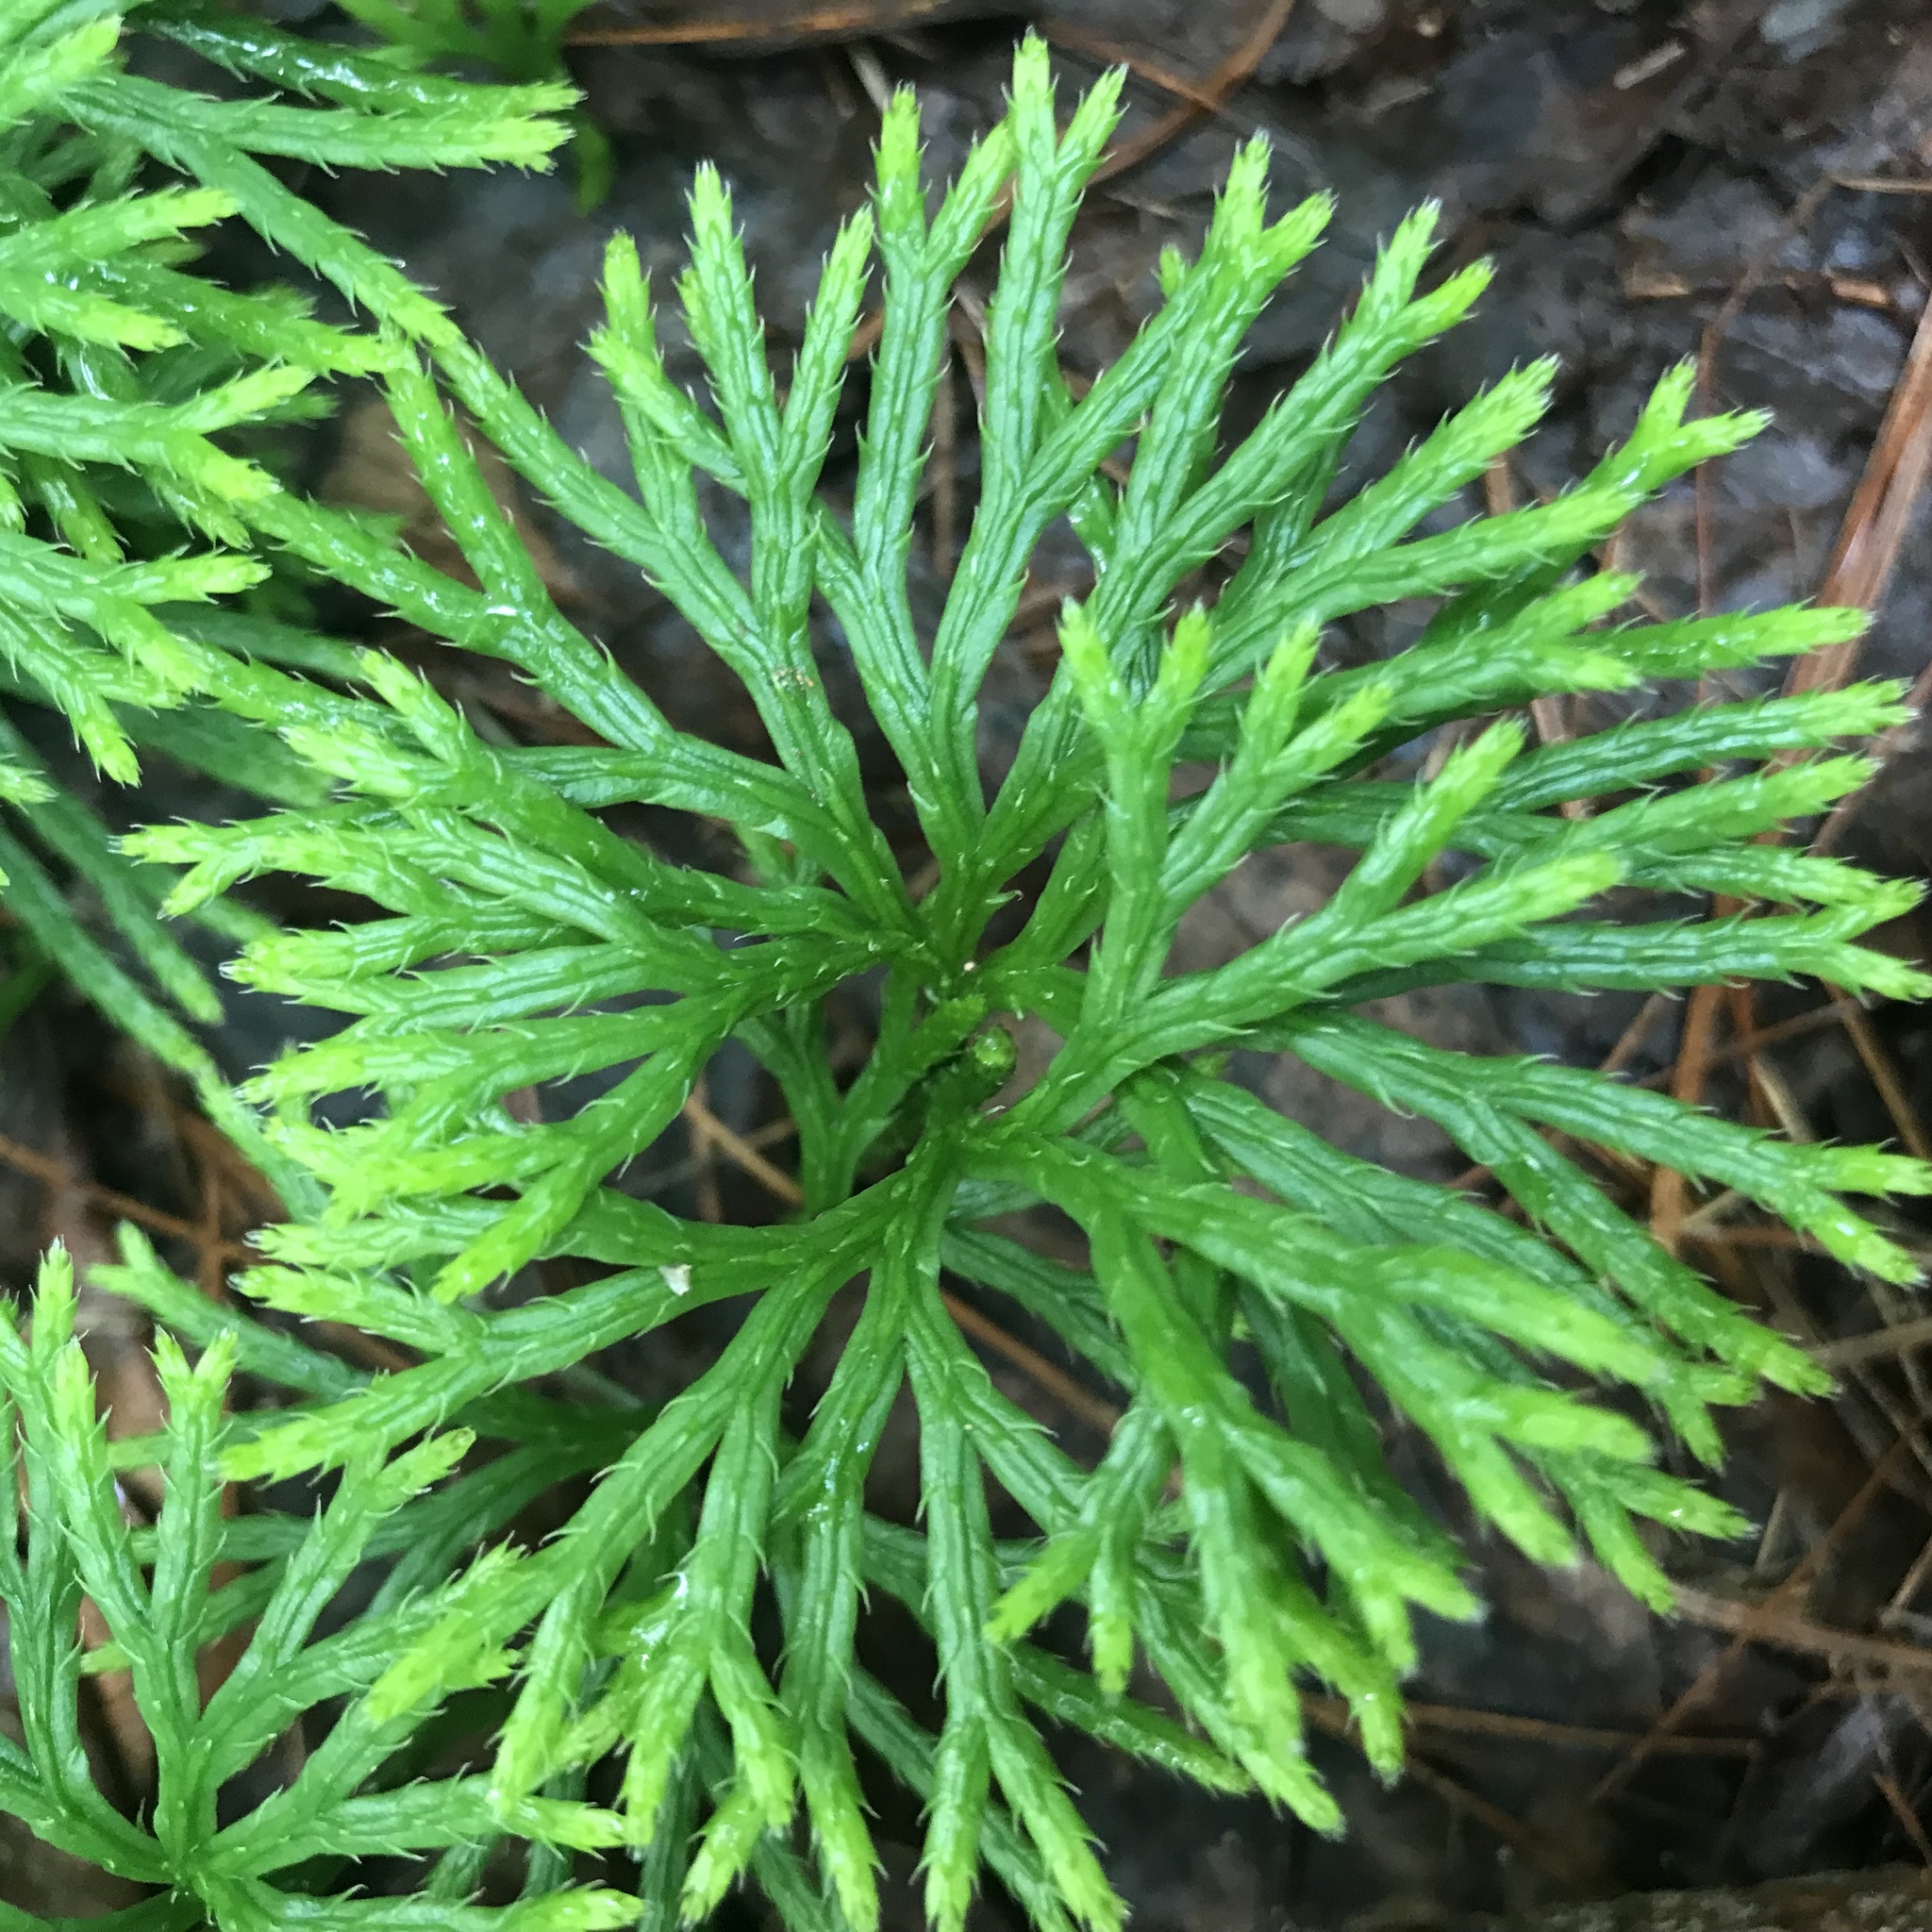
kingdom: Plantae
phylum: Tracheophyta
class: Lycopodiopsida
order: Lycopodiales
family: Lycopodiaceae
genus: Diphasiastrum
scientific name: Diphasiastrum digitatum
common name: Southern running-pine
